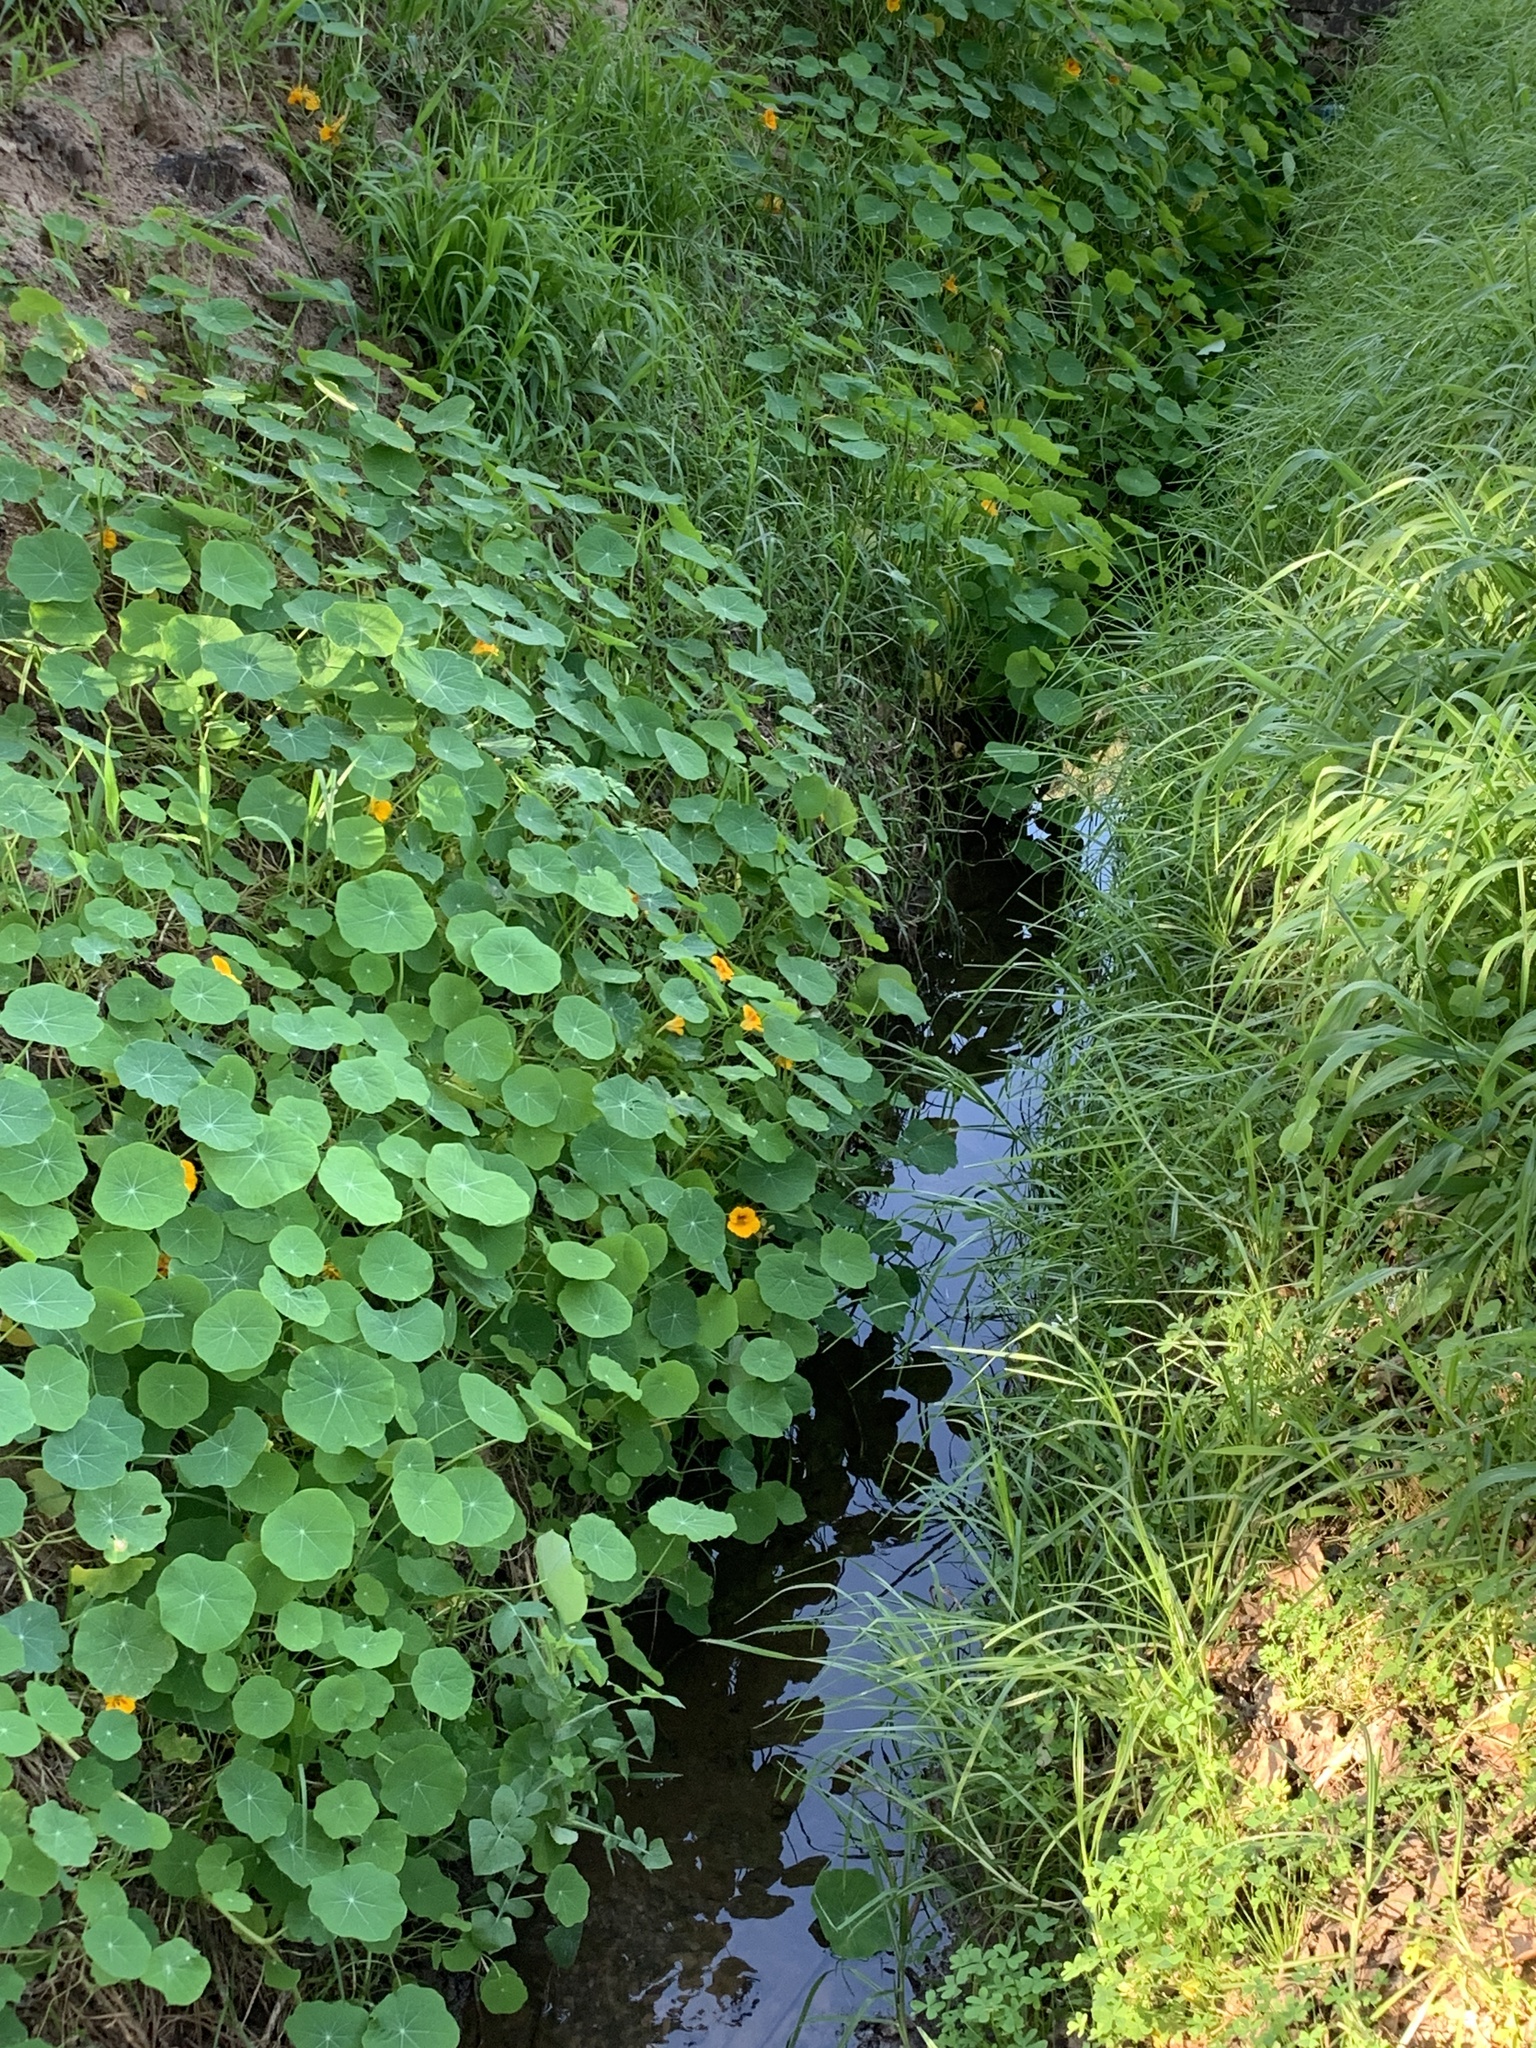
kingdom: Plantae
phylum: Tracheophyta
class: Magnoliopsida
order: Brassicales
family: Tropaeolaceae
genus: Tropaeolum
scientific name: Tropaeolum majus
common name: Nasturtium
